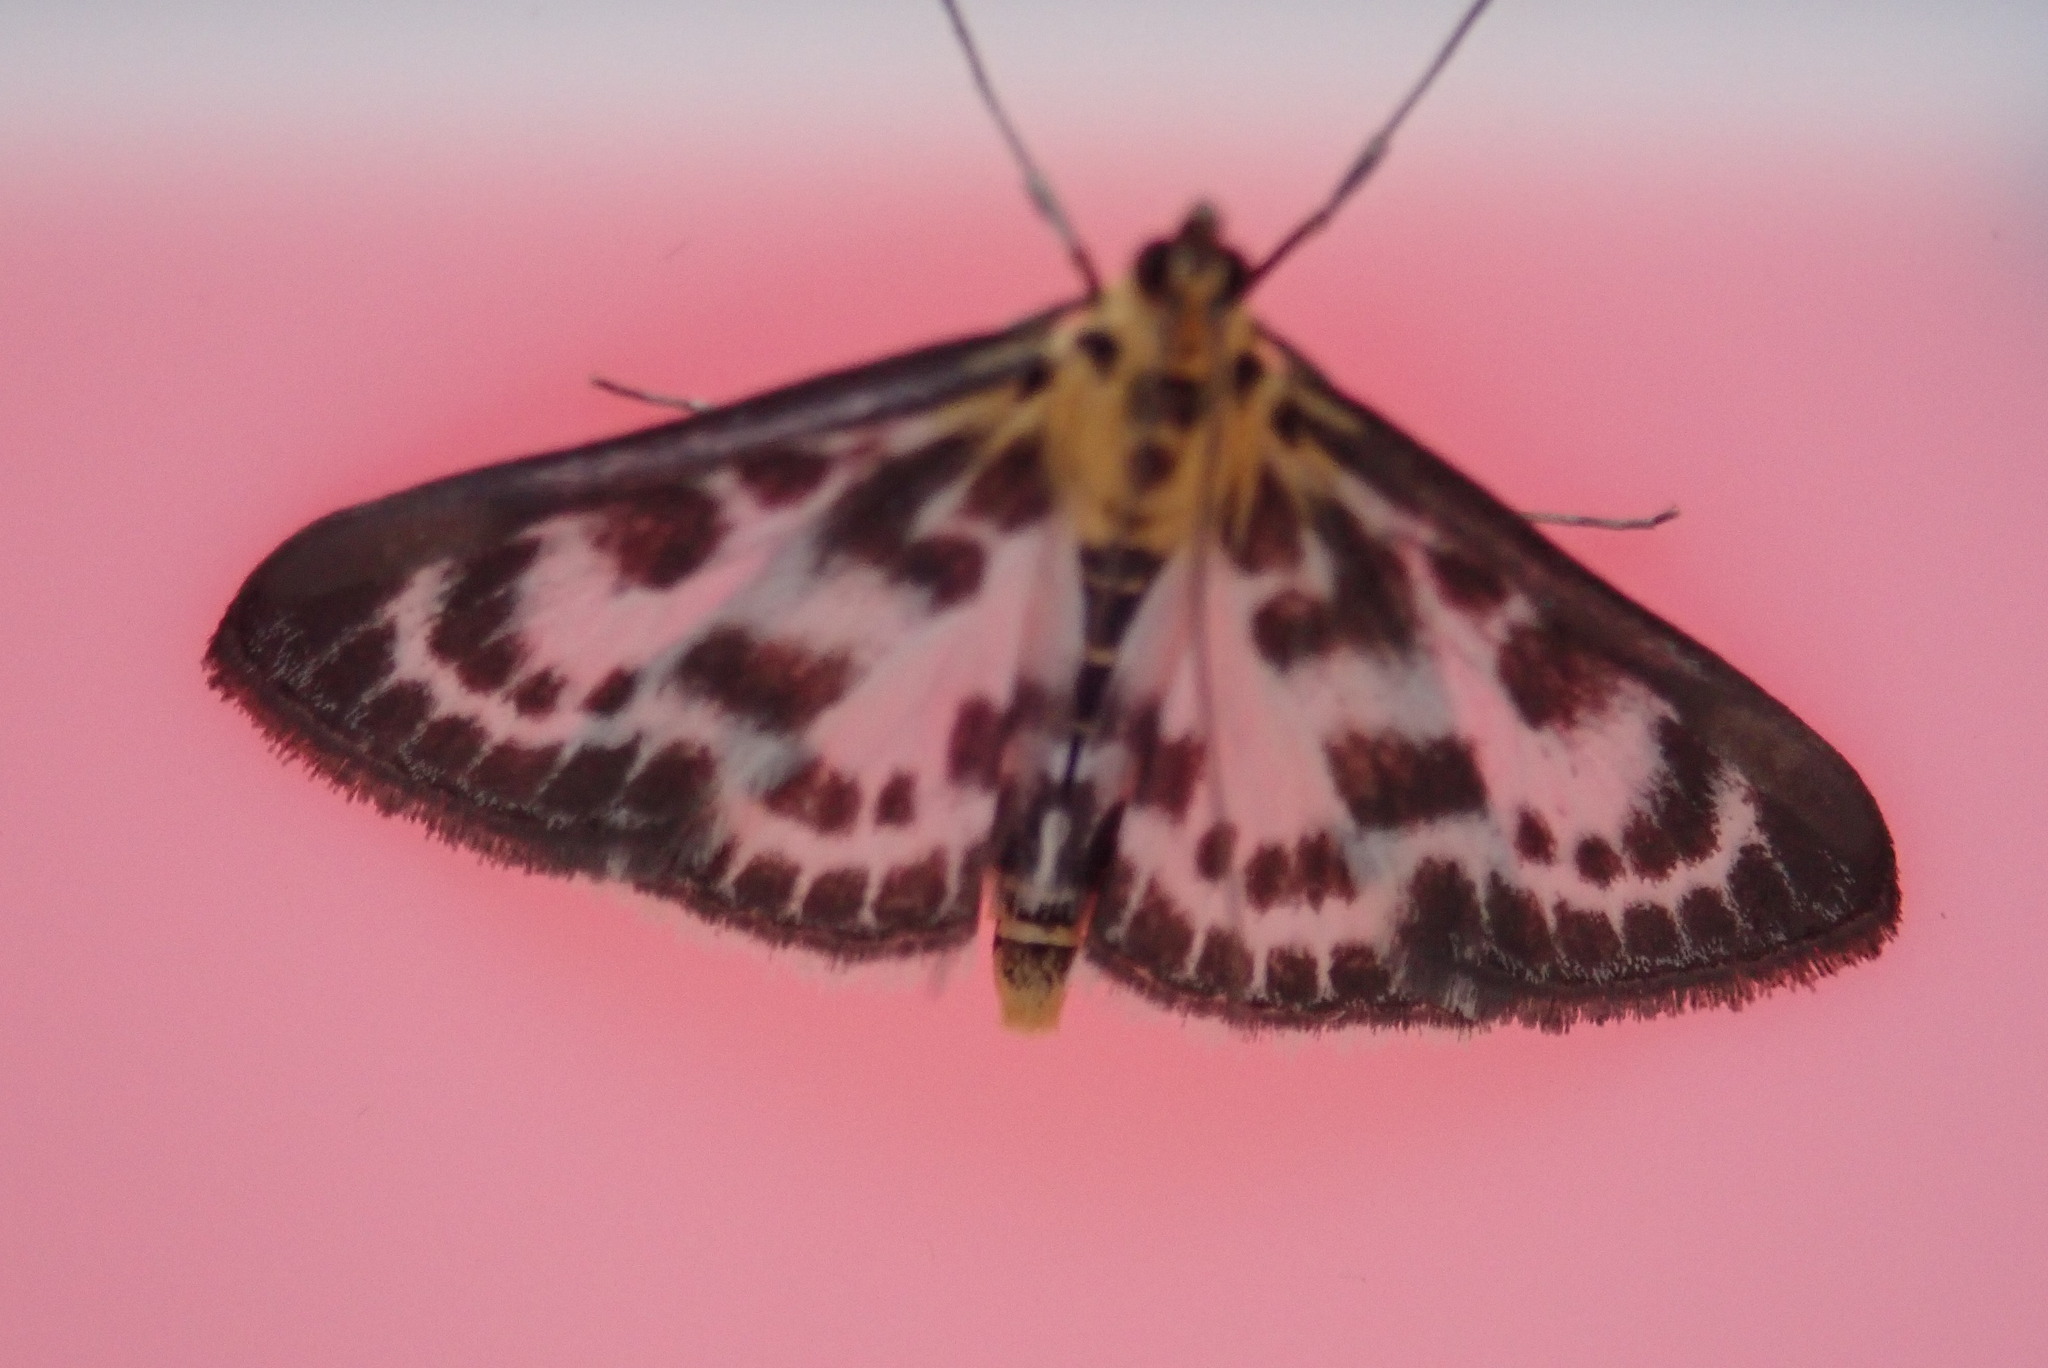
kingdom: Animalia
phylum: Arthropoda
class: Insecta
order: Lepidoptera
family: Crambidae
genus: Anania
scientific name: Anania hortulata
